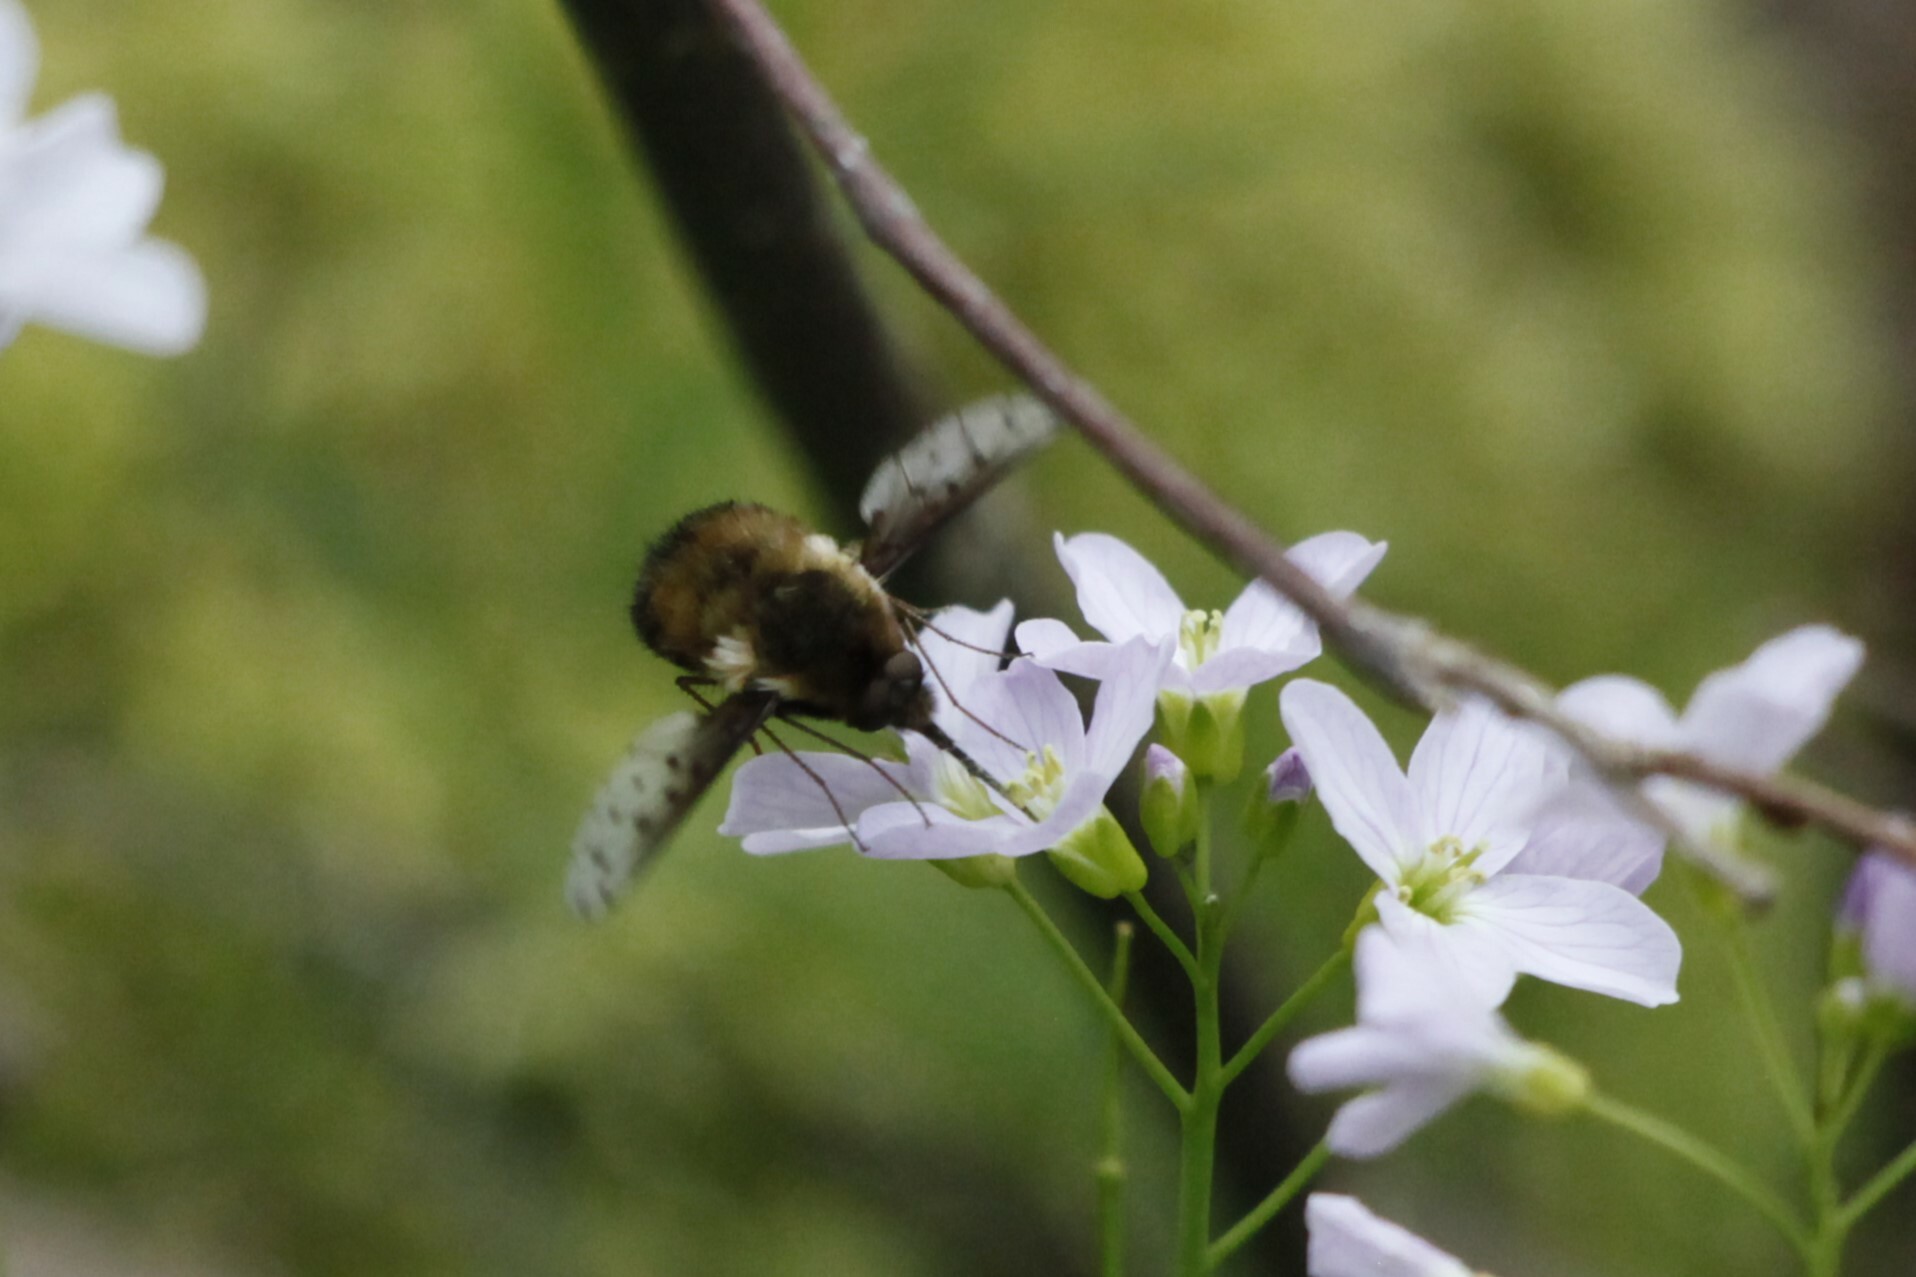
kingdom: Animalia
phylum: Arthropoda
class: Insecta
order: Diptera
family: Bombyliidae
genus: Bombylius
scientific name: Bombylius discolor
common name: Dotted bee-fly
